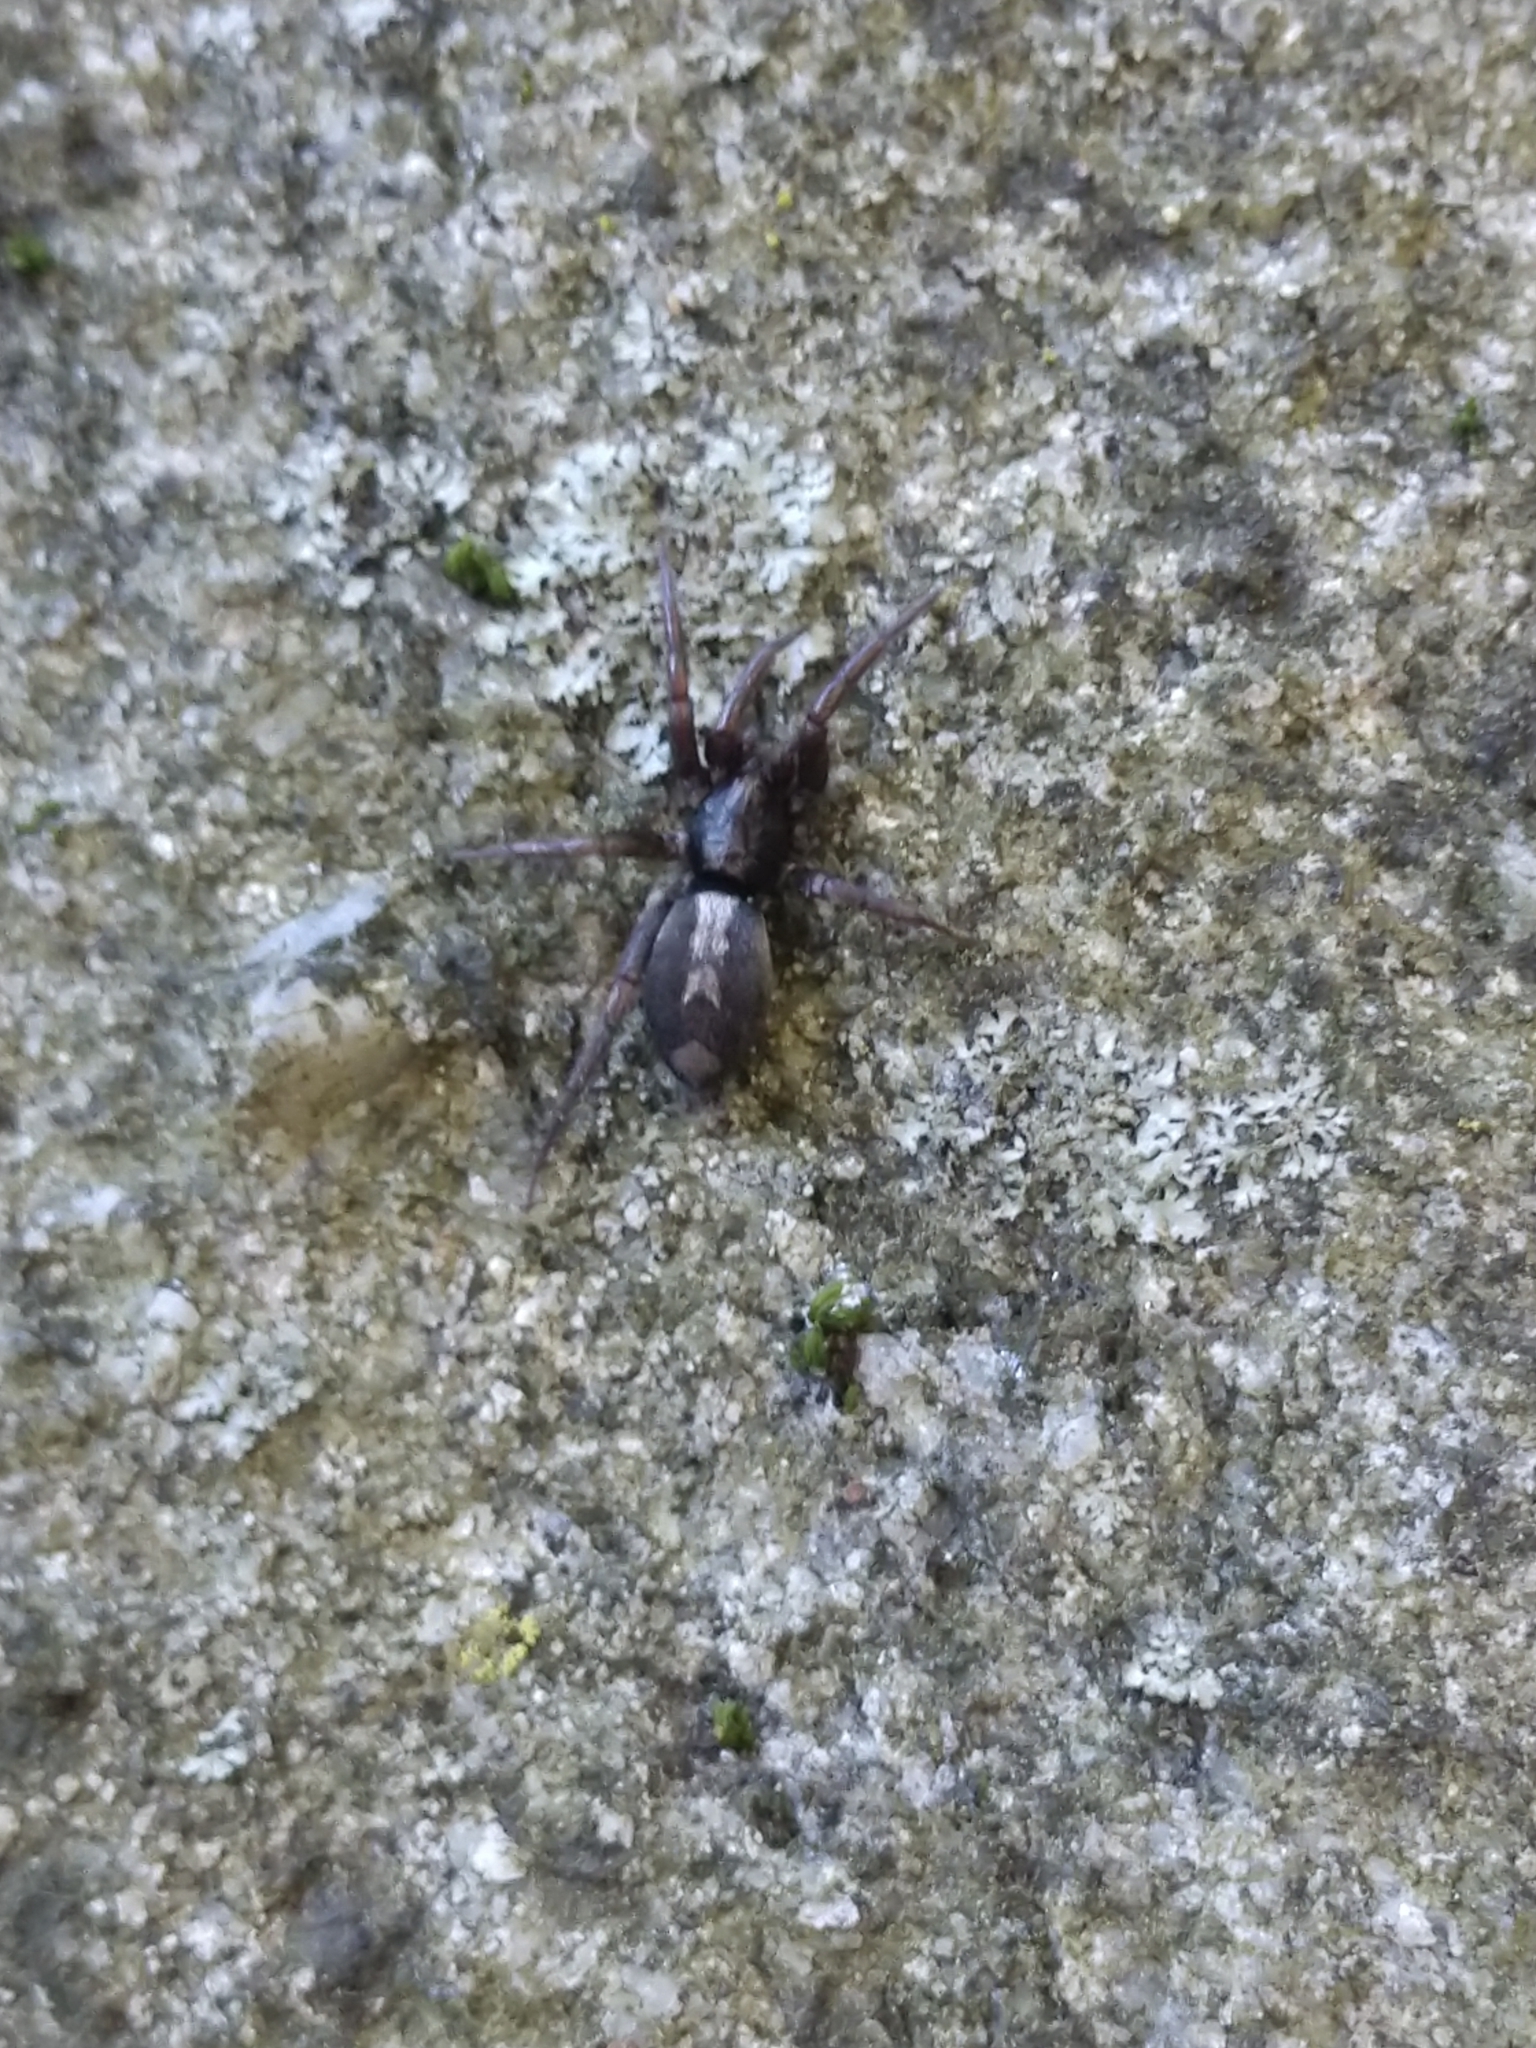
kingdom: Animalia
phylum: Arthropoda
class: Arachnida
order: Araneae
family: Gnaphosidae
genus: Herpyllus
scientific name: Herpyllus ecclesiasticus
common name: Eastern parson spider
